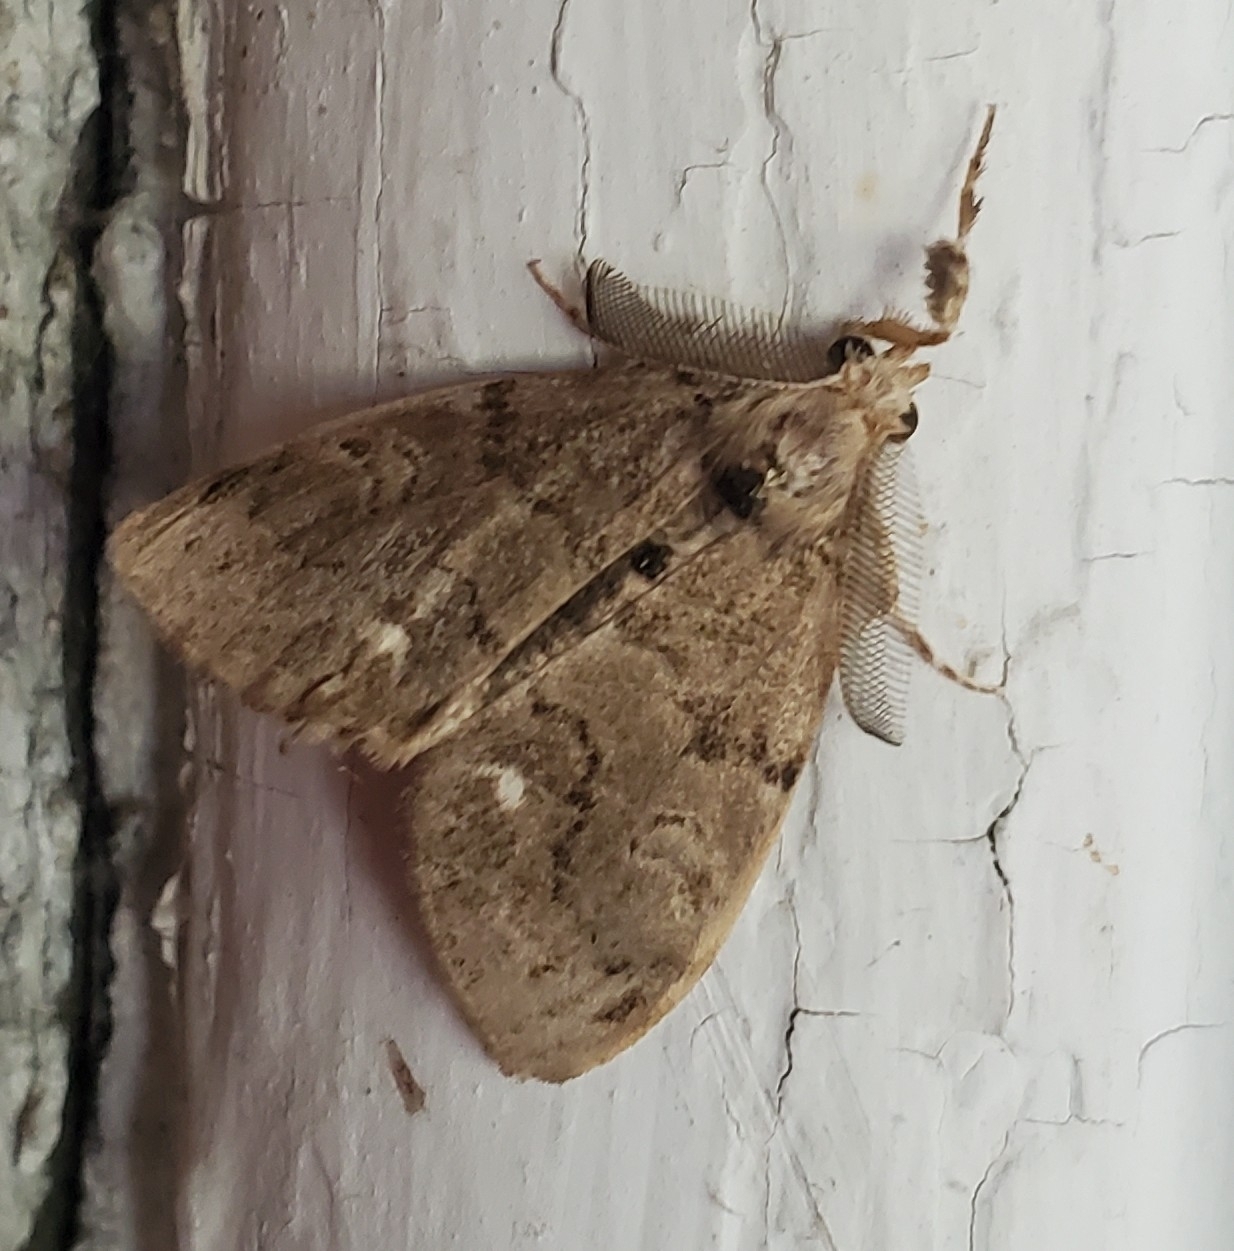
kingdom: Animalia
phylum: Arthropoda
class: Insecta
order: Lepidoptera
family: Erebidae
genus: Orgyia
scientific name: Orgyia leucostigma
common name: White-marked tussock moth
